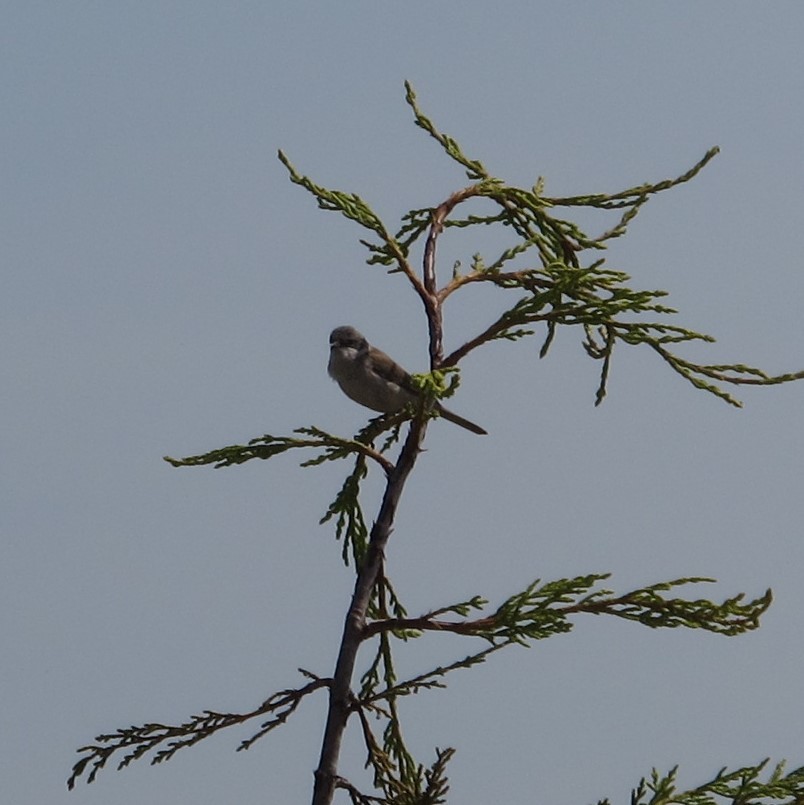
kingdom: Animalia
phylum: Chordata
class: Aves
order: Passeriformes
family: Sylviidae
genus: Sylvia
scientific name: Sylvia curruca
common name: Lesser whitethroat
